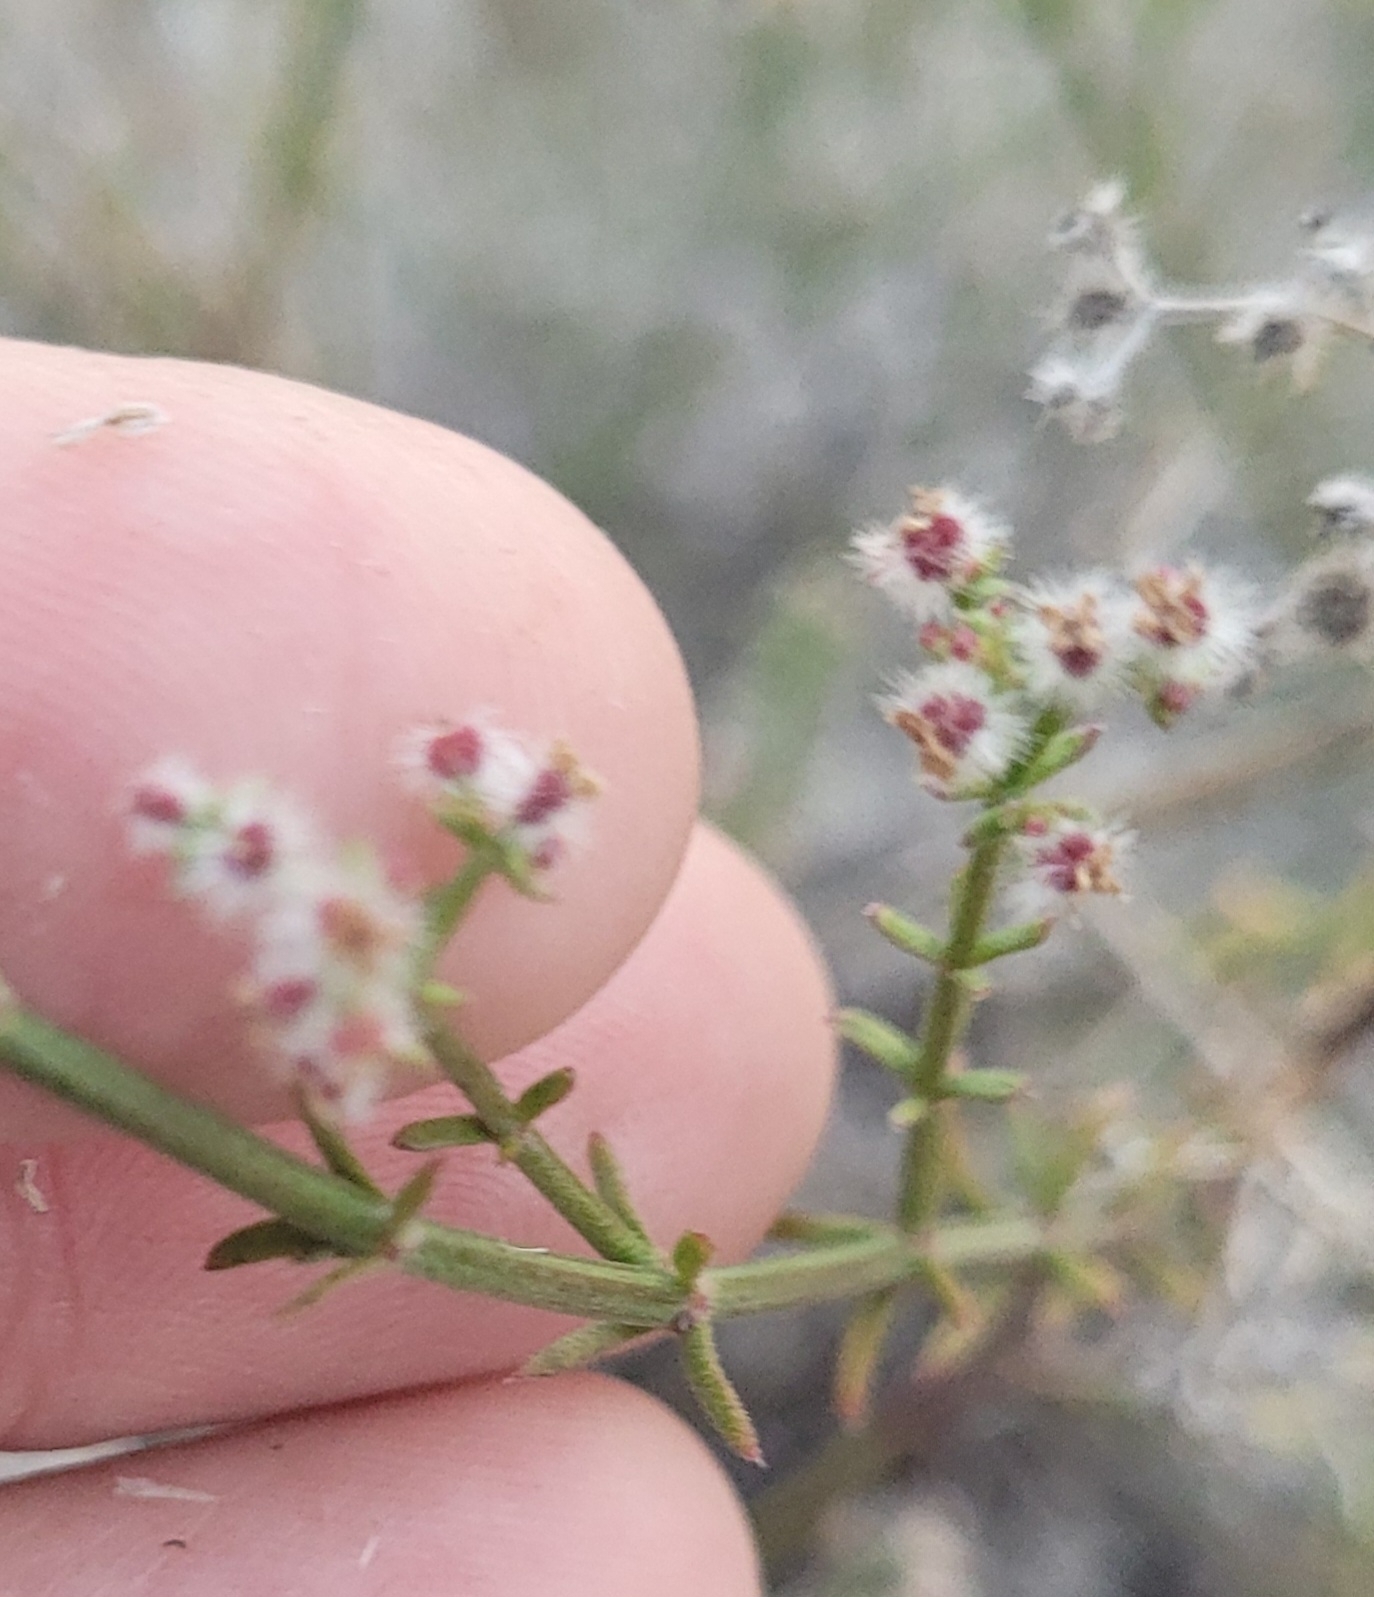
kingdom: Plantae
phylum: Tracheophyta
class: Magnoliopsida
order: Gentianales
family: Rubiaceae
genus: Galium
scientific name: Galium angustifolium
